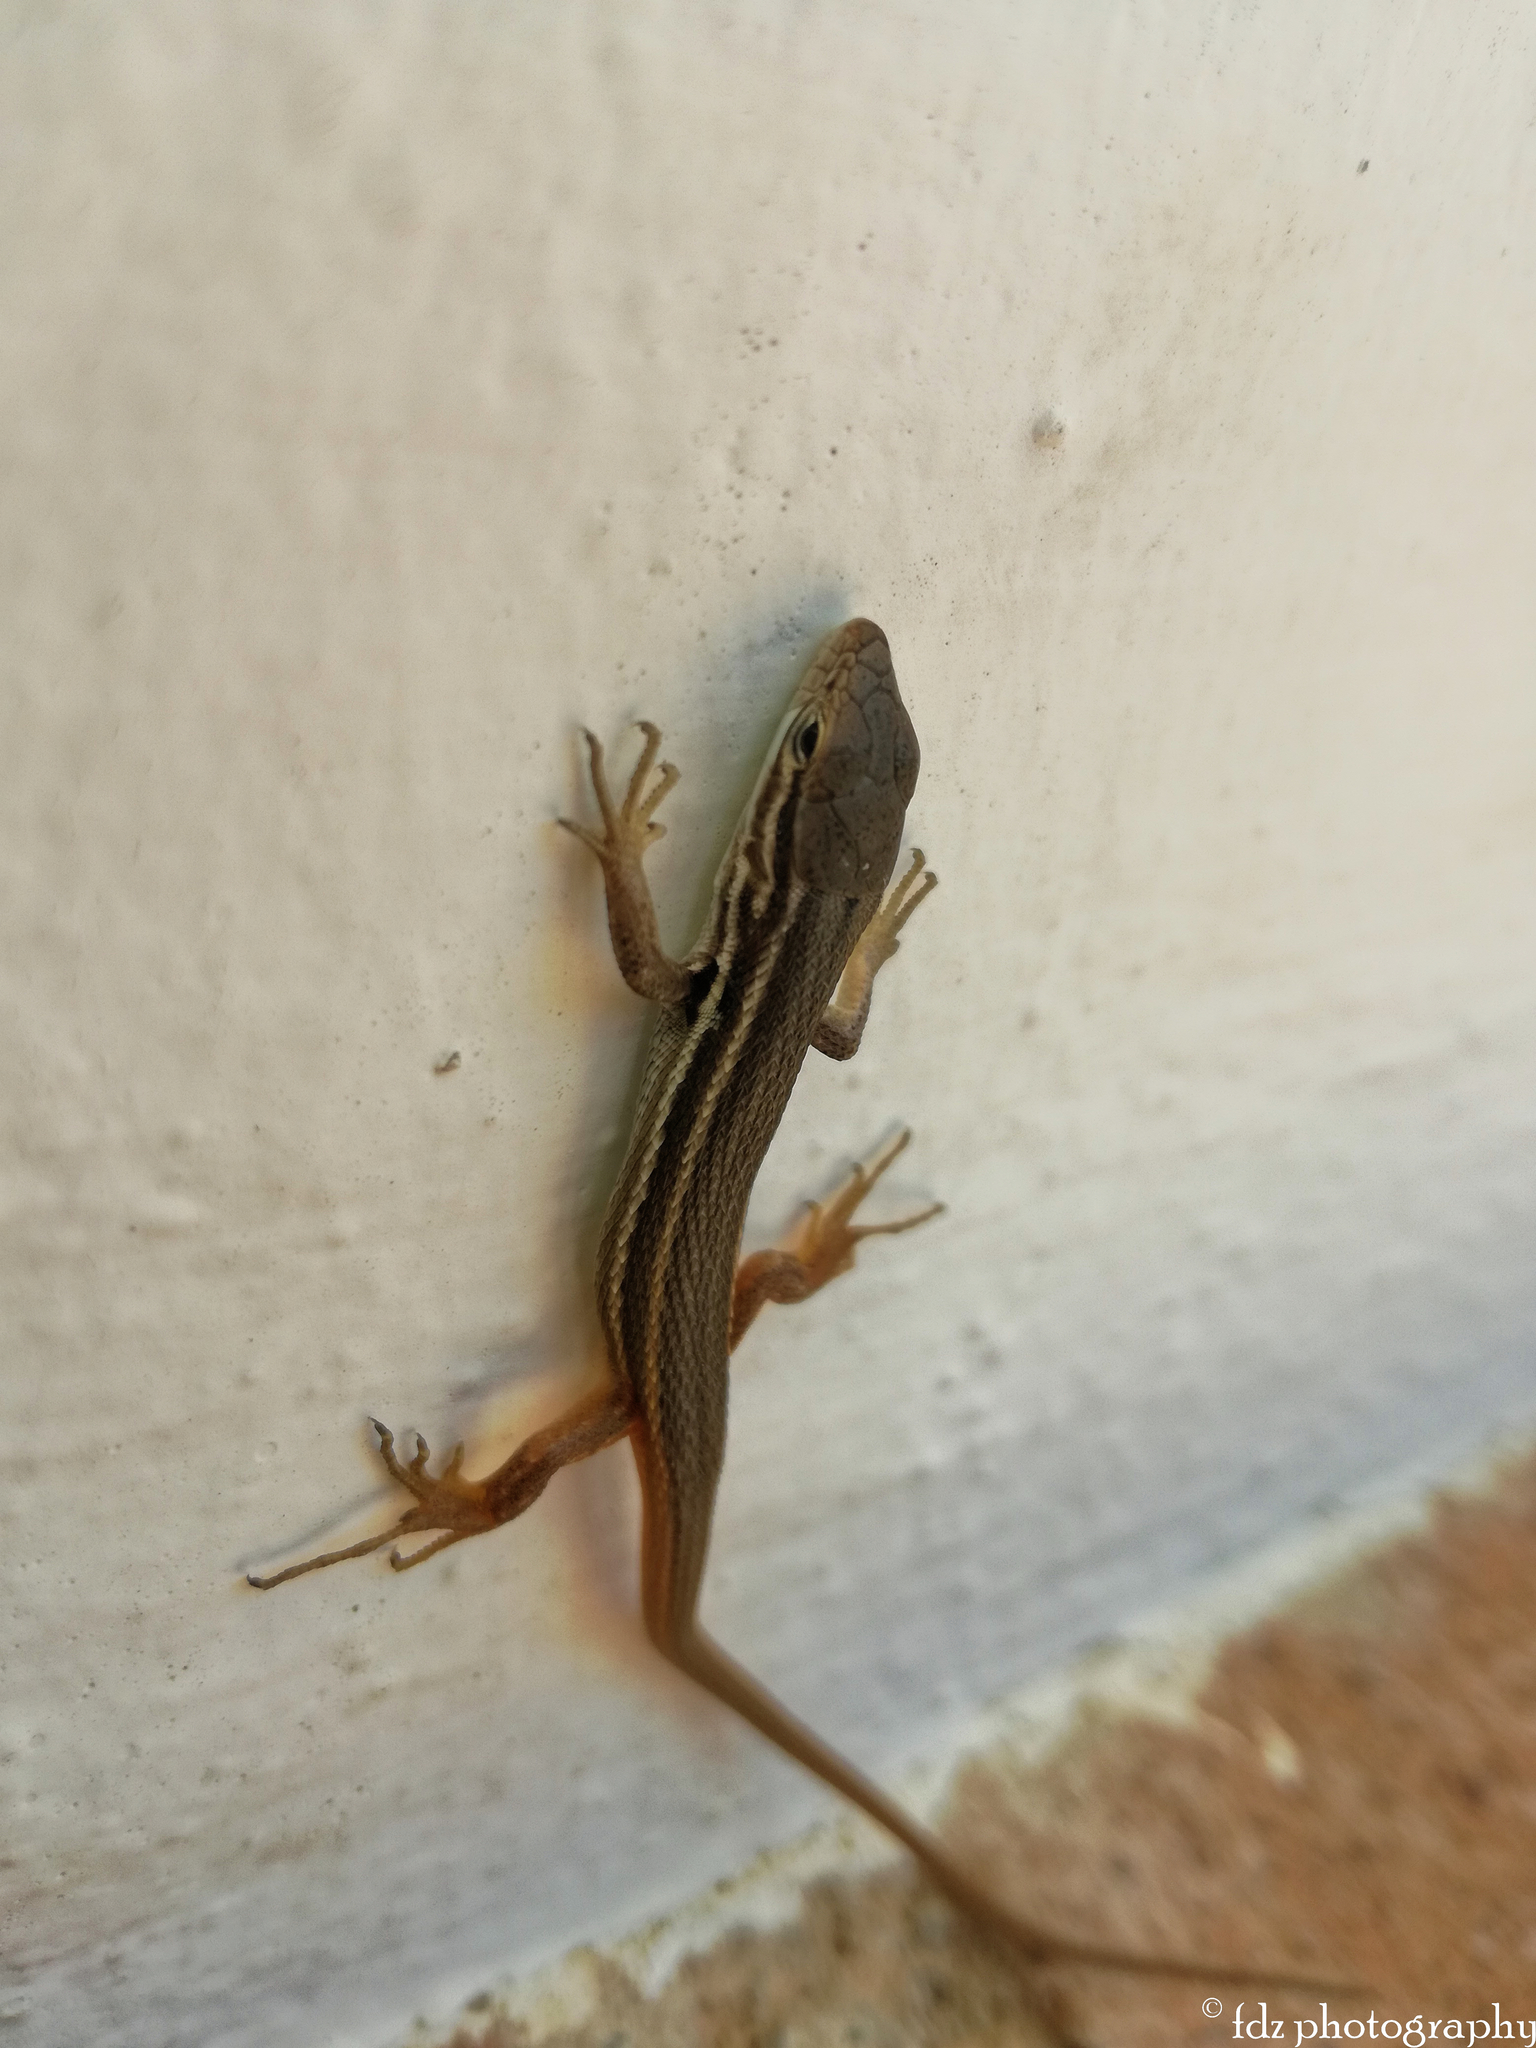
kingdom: Animalia
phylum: Chordata
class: Squamata
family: Lacertidae
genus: Psammodromus
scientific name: Psammodromus algirus
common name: Algerian psammodromus
